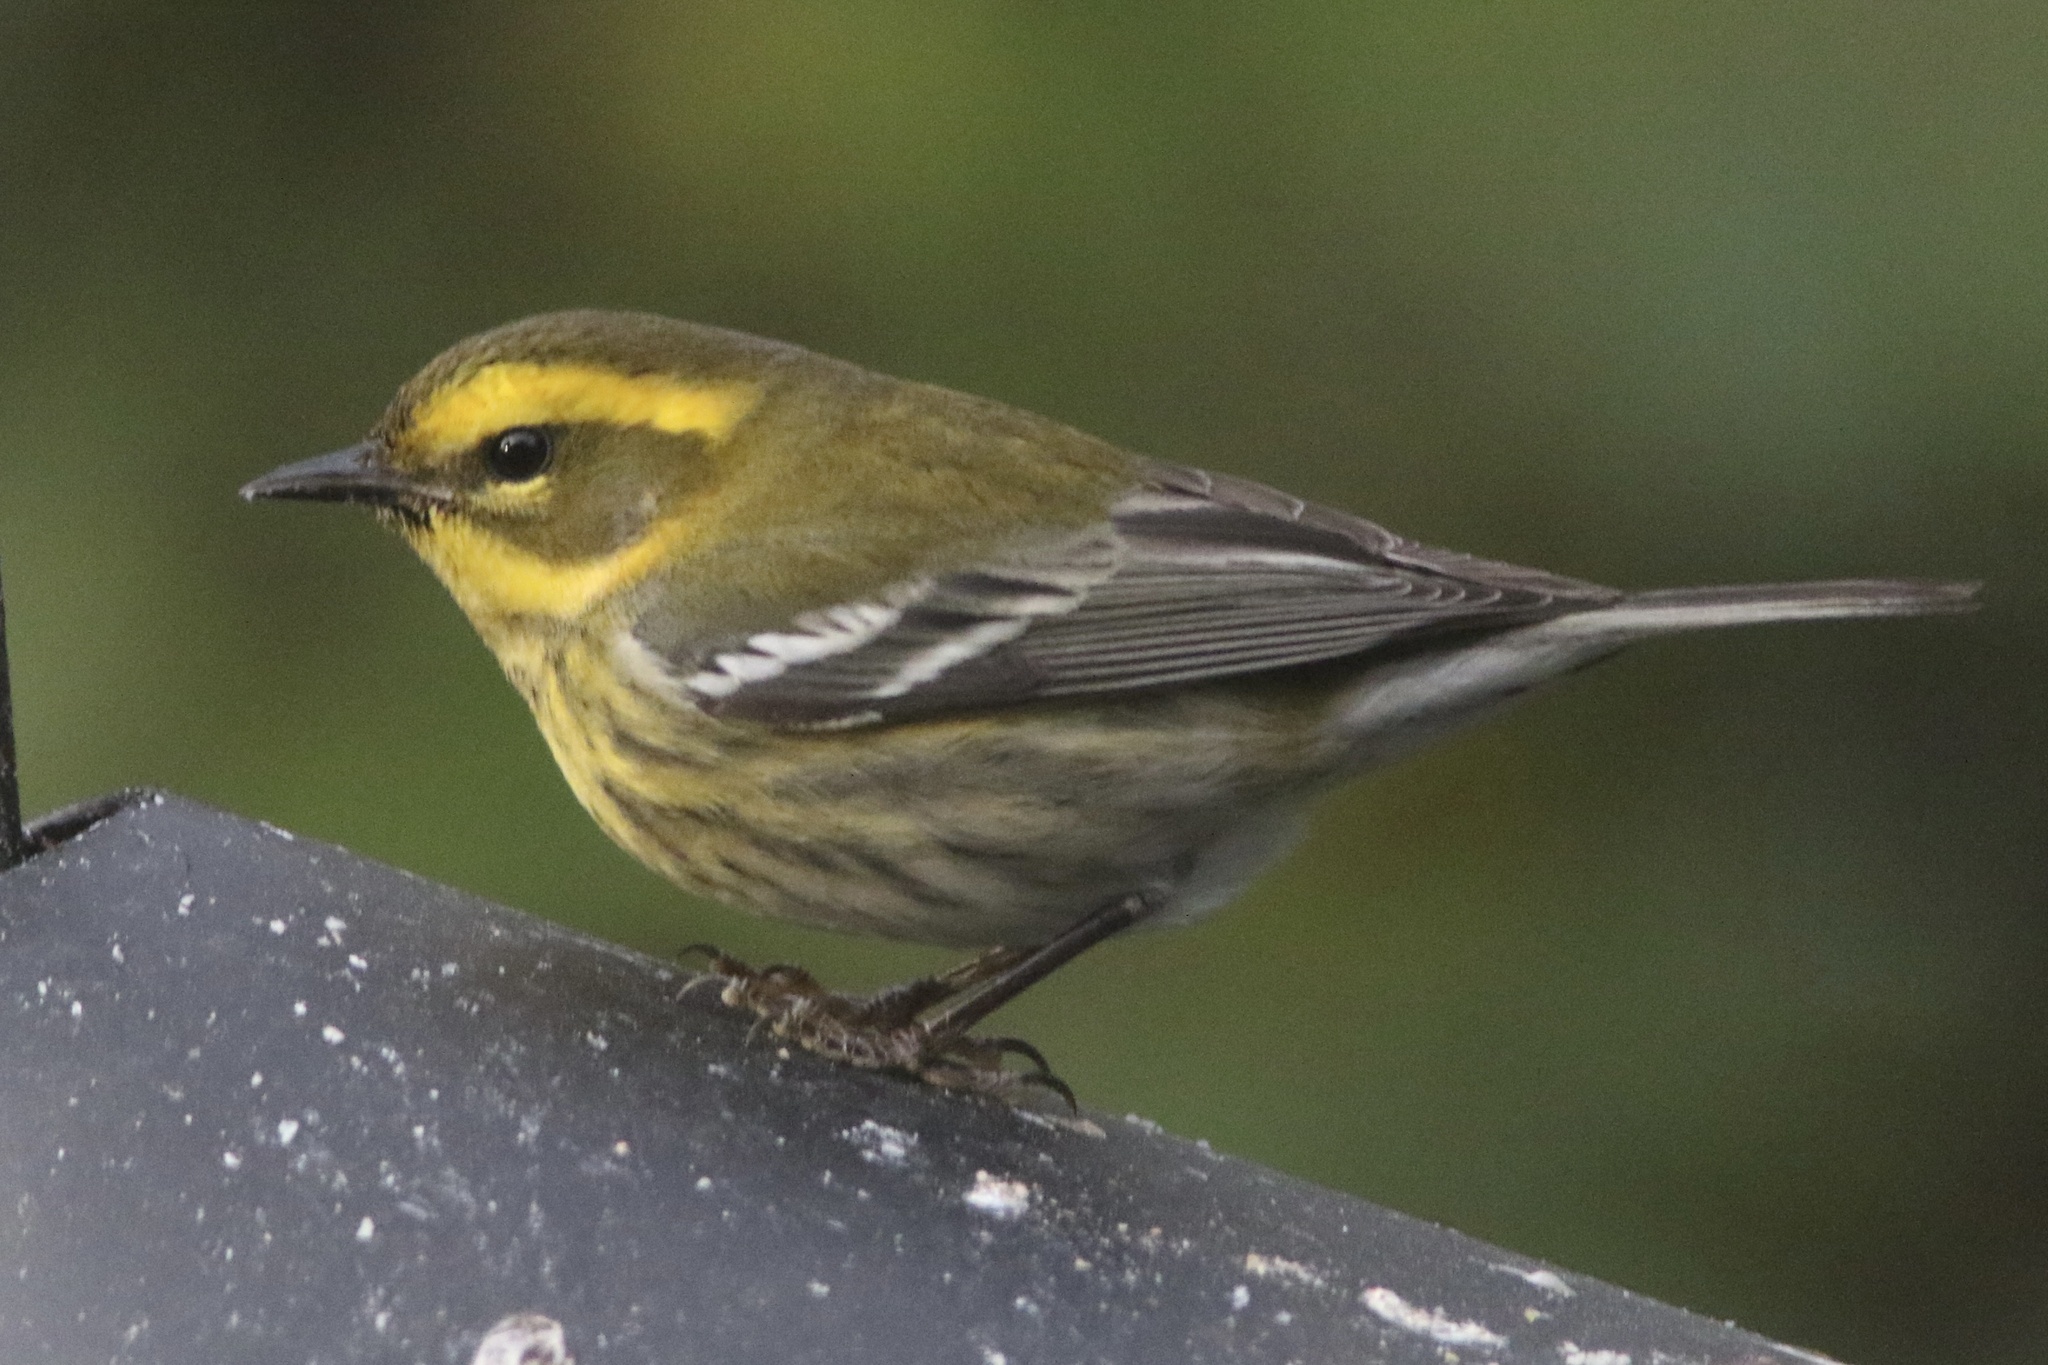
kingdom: Animalia
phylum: Chordata
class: Aves
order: Passeriformes
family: Parulidae
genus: Setophaga
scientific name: Setophaga townsendi
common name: Townsend's warbler
